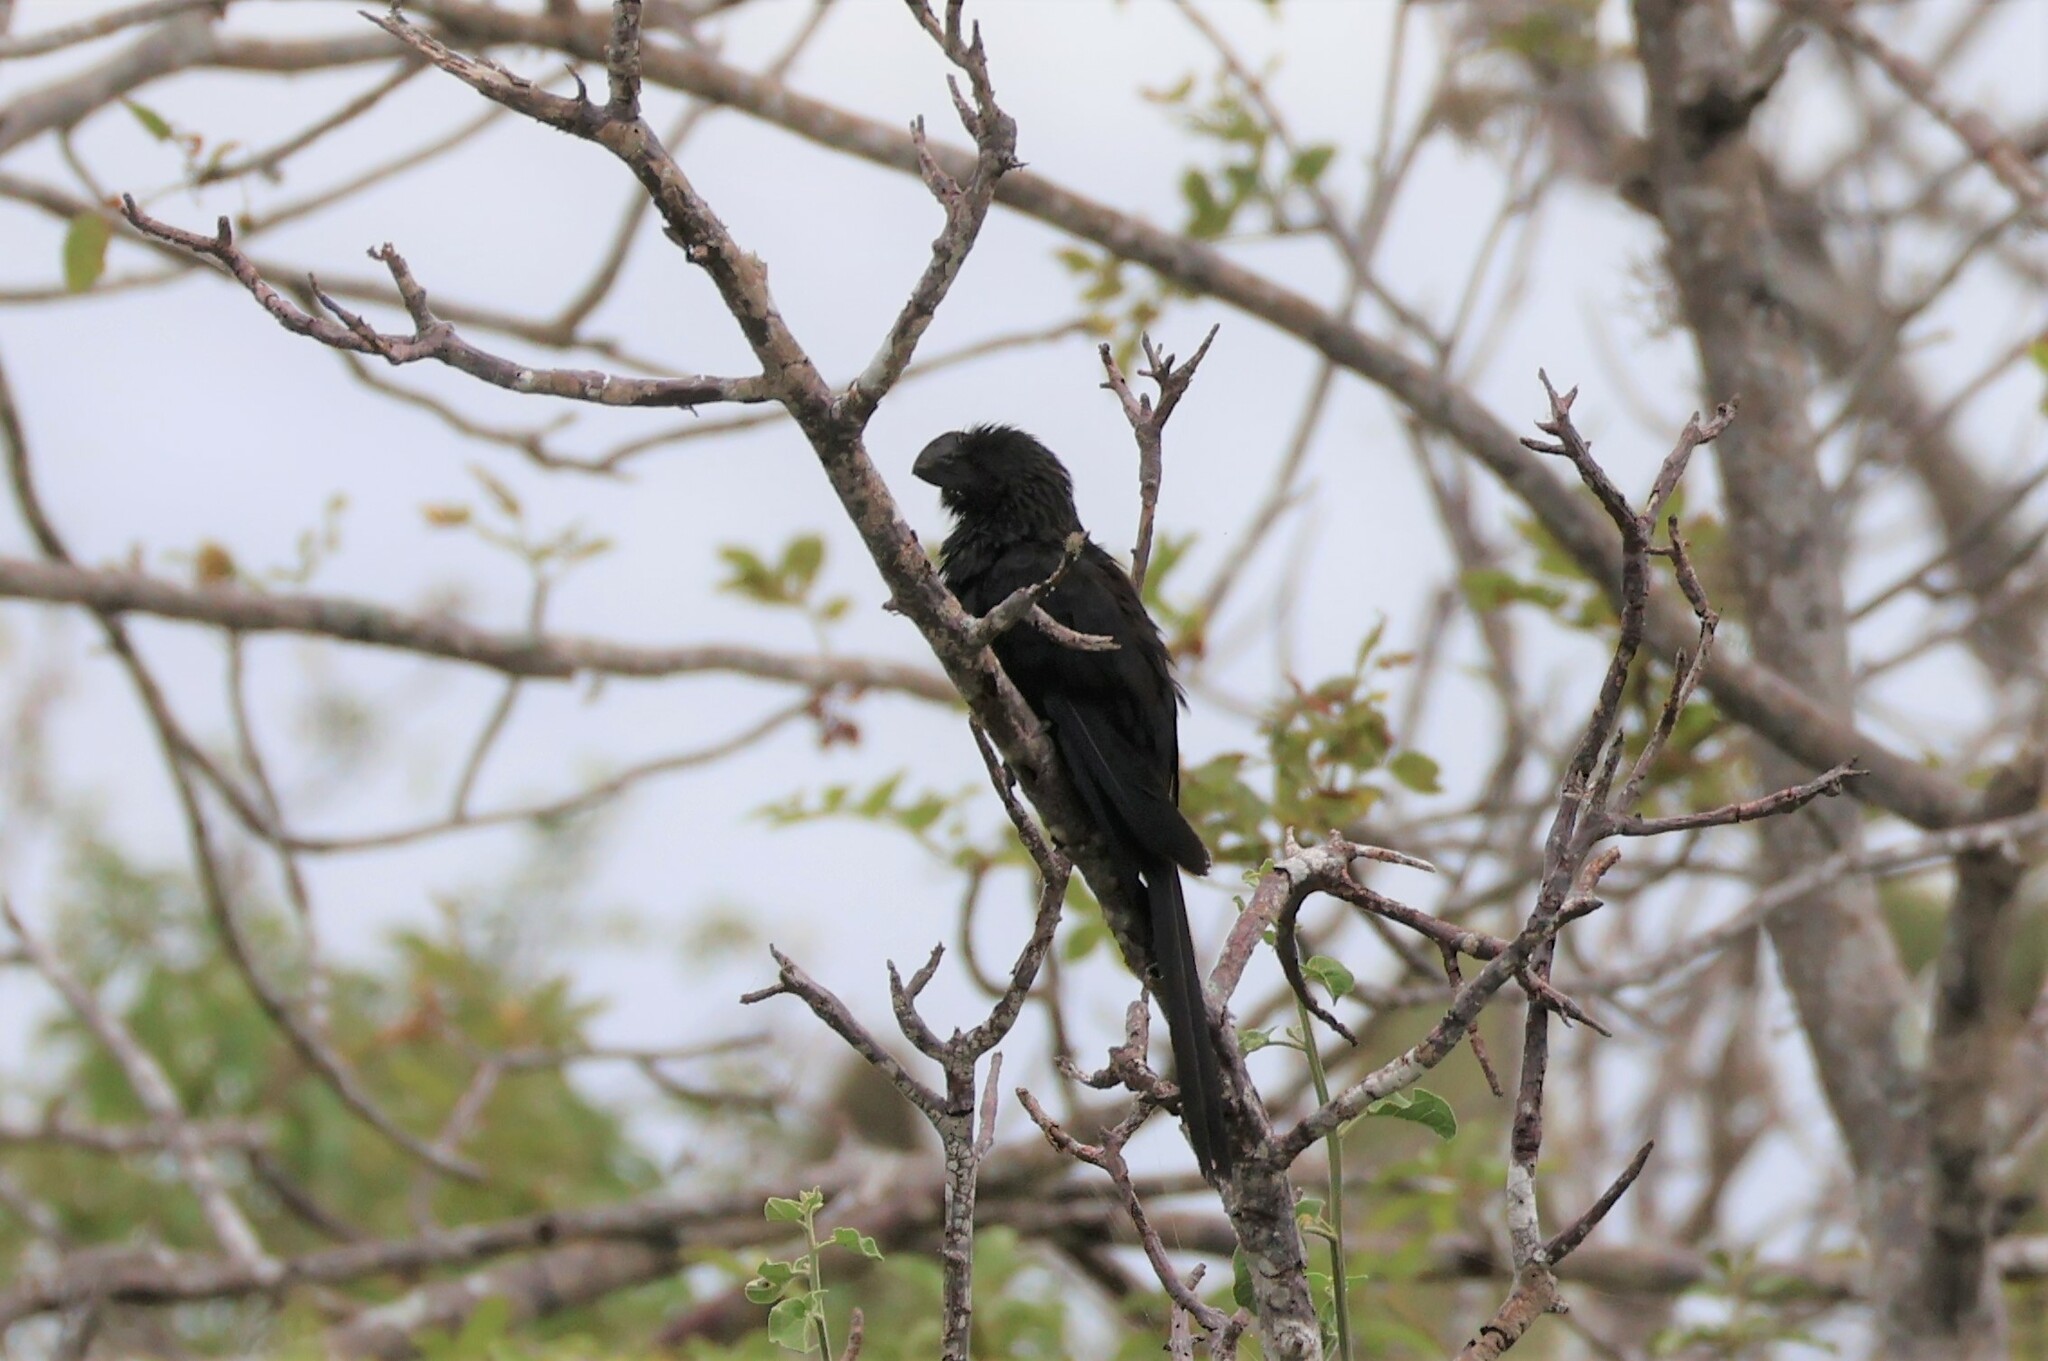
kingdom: Animalia
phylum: Chordata
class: Aves
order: Cuculiformes
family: Cuculidae
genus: Crotophaga
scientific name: Crotophaga ani
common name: Smooth-billed ani
